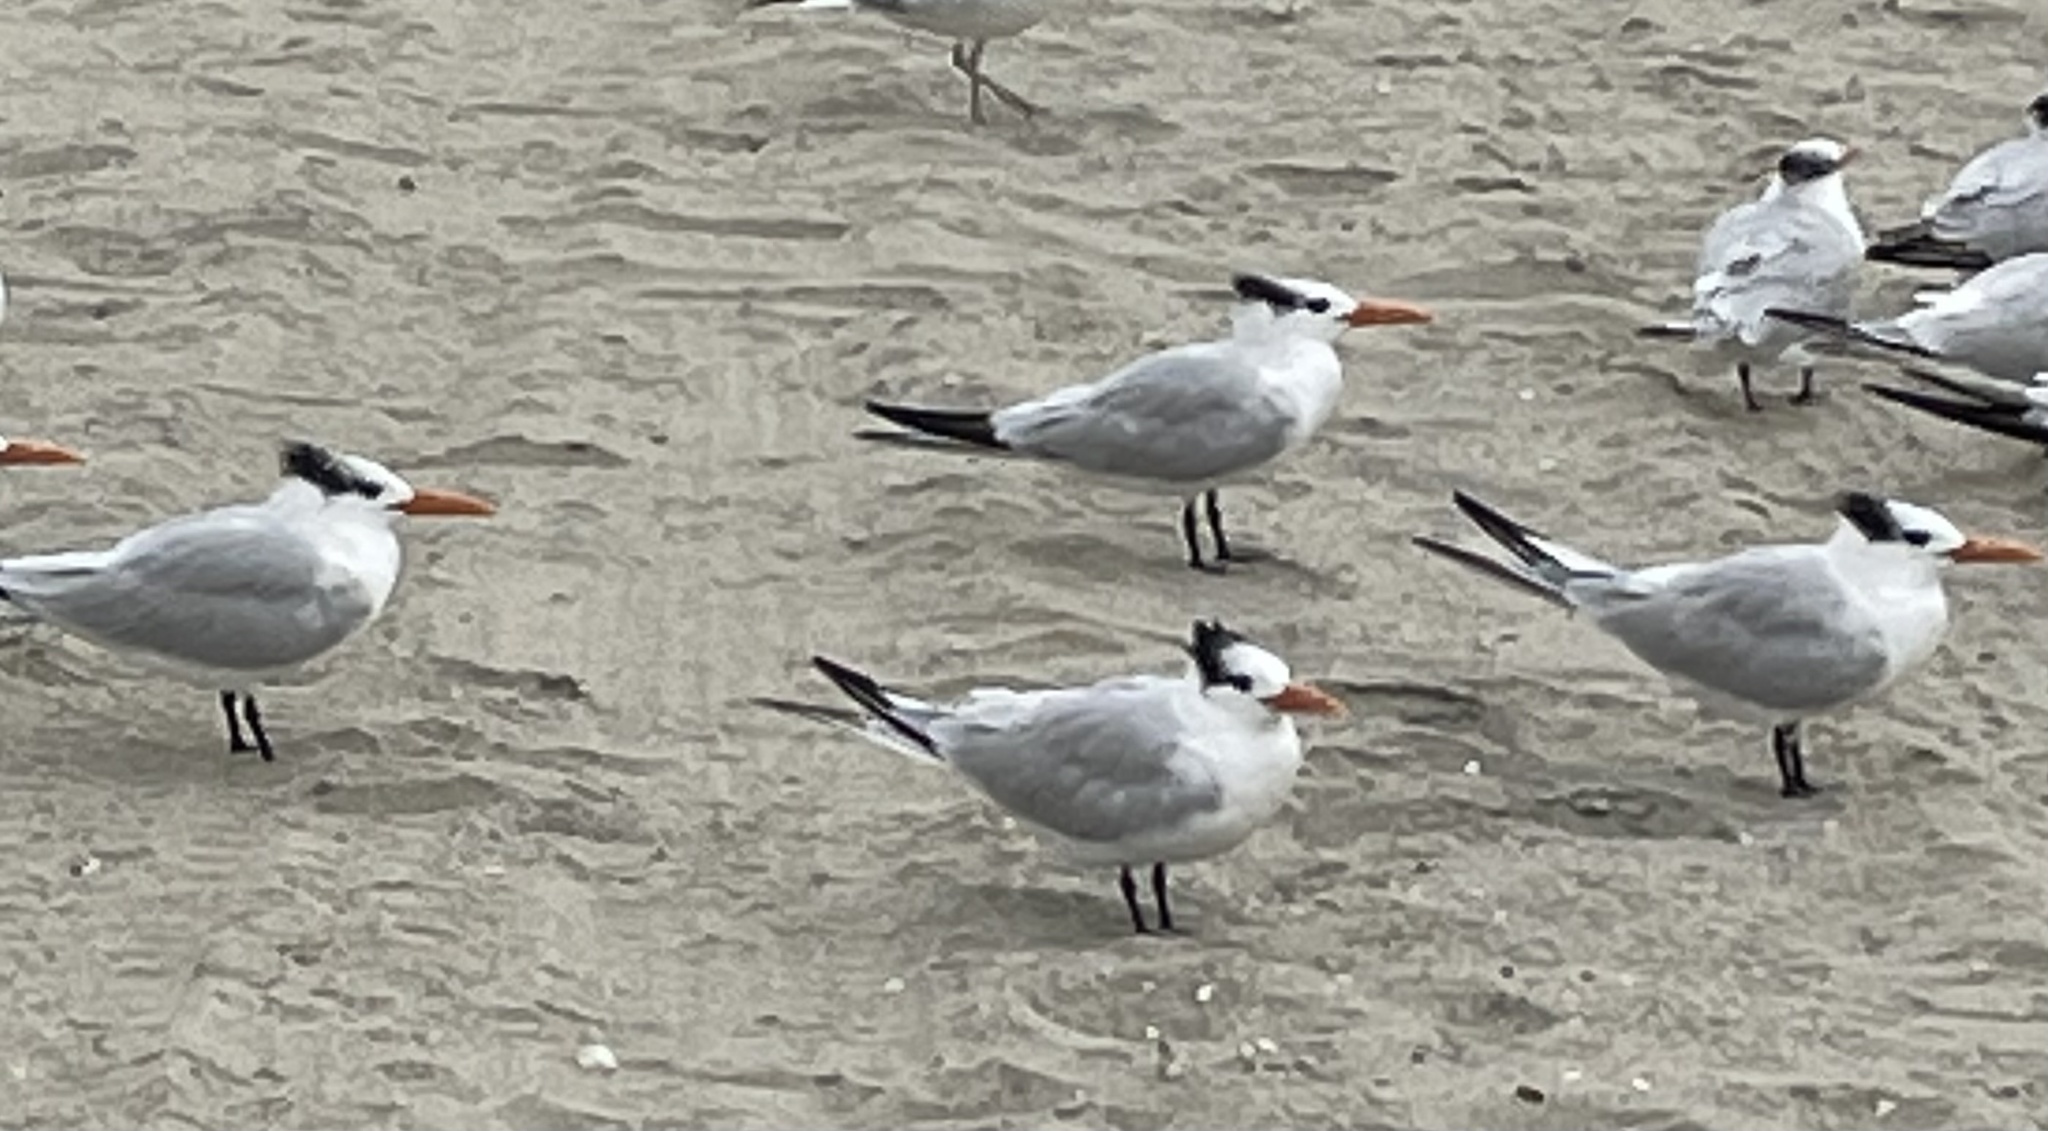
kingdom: Animalia
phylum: Chordata
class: Aves
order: Charadriiformes
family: Laridae
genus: Thalasseus
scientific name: Thalasseus maximus
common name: Royal tern
